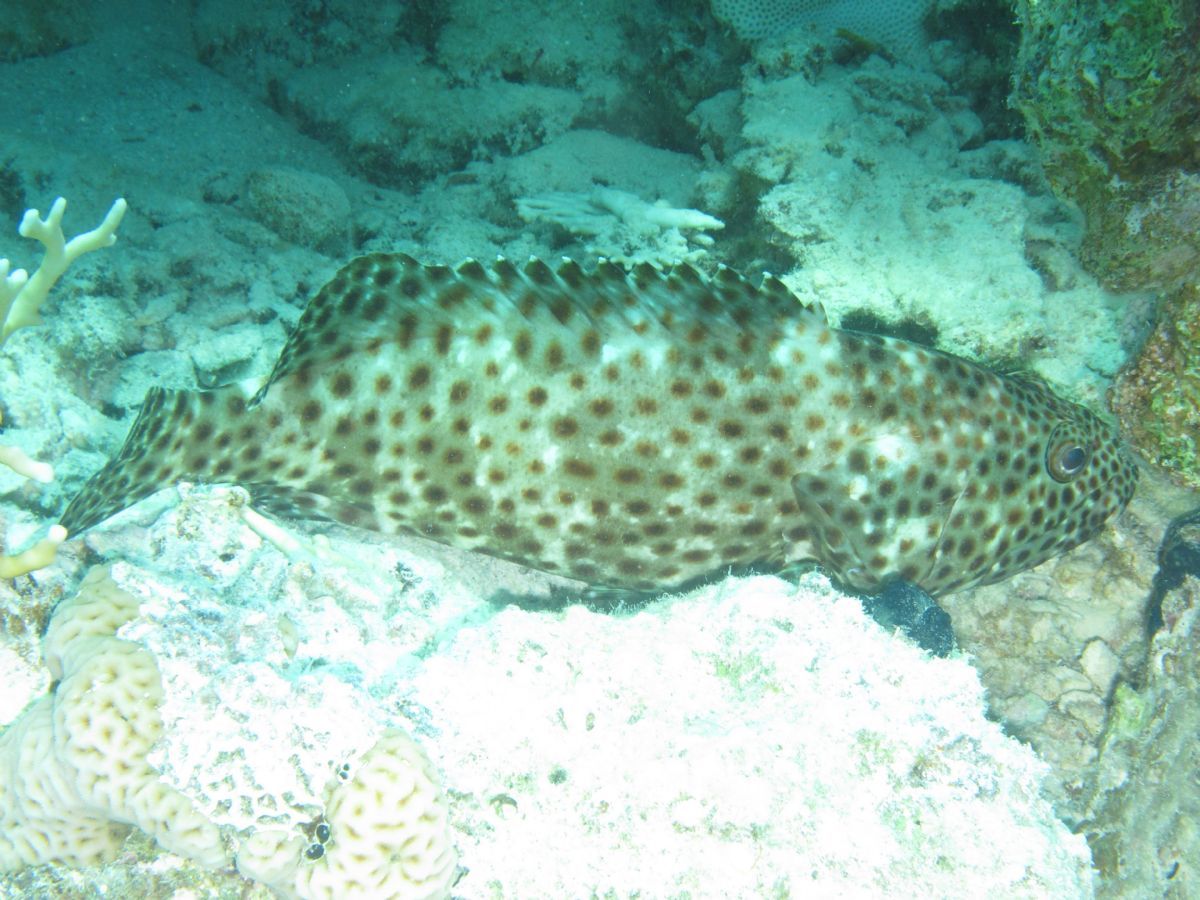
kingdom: Animalia
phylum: Chordata
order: Perciformes
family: Serranidae
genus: Epinephelus
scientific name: Epinephelus tauvina
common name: Greasy grouper
